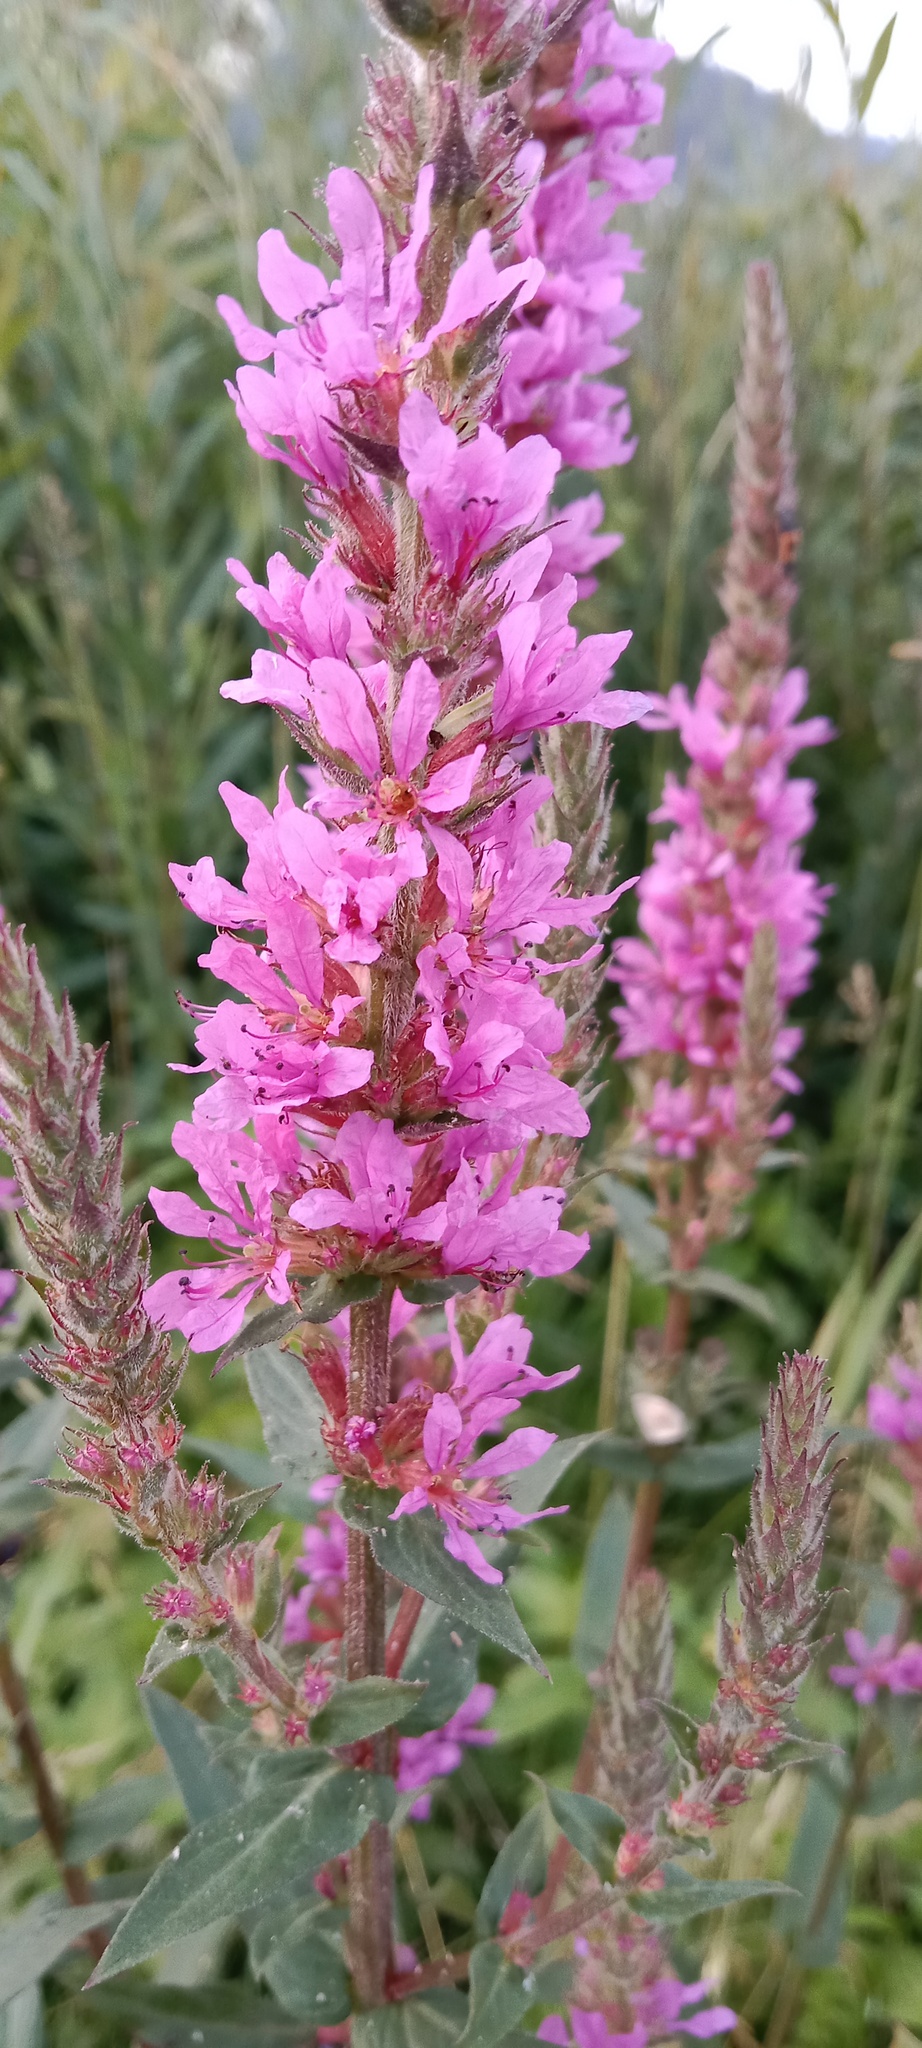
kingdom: Plantae
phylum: Tracheophyta
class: Magnoliopsida
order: Myrtales
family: Lythraceae
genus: Lythrum
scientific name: Lythrum salicaria
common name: Purple loosestrife
